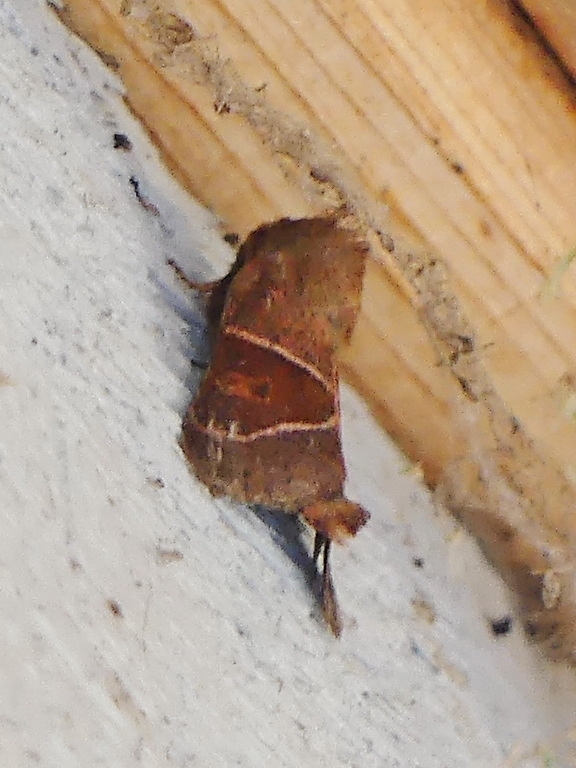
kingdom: Animalia
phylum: Arthropoda
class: Insecta
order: Lepidoptera
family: Noctuidae
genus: Lemmeria
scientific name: Lemmeria digitalis
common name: Fingered lemmeria moth
